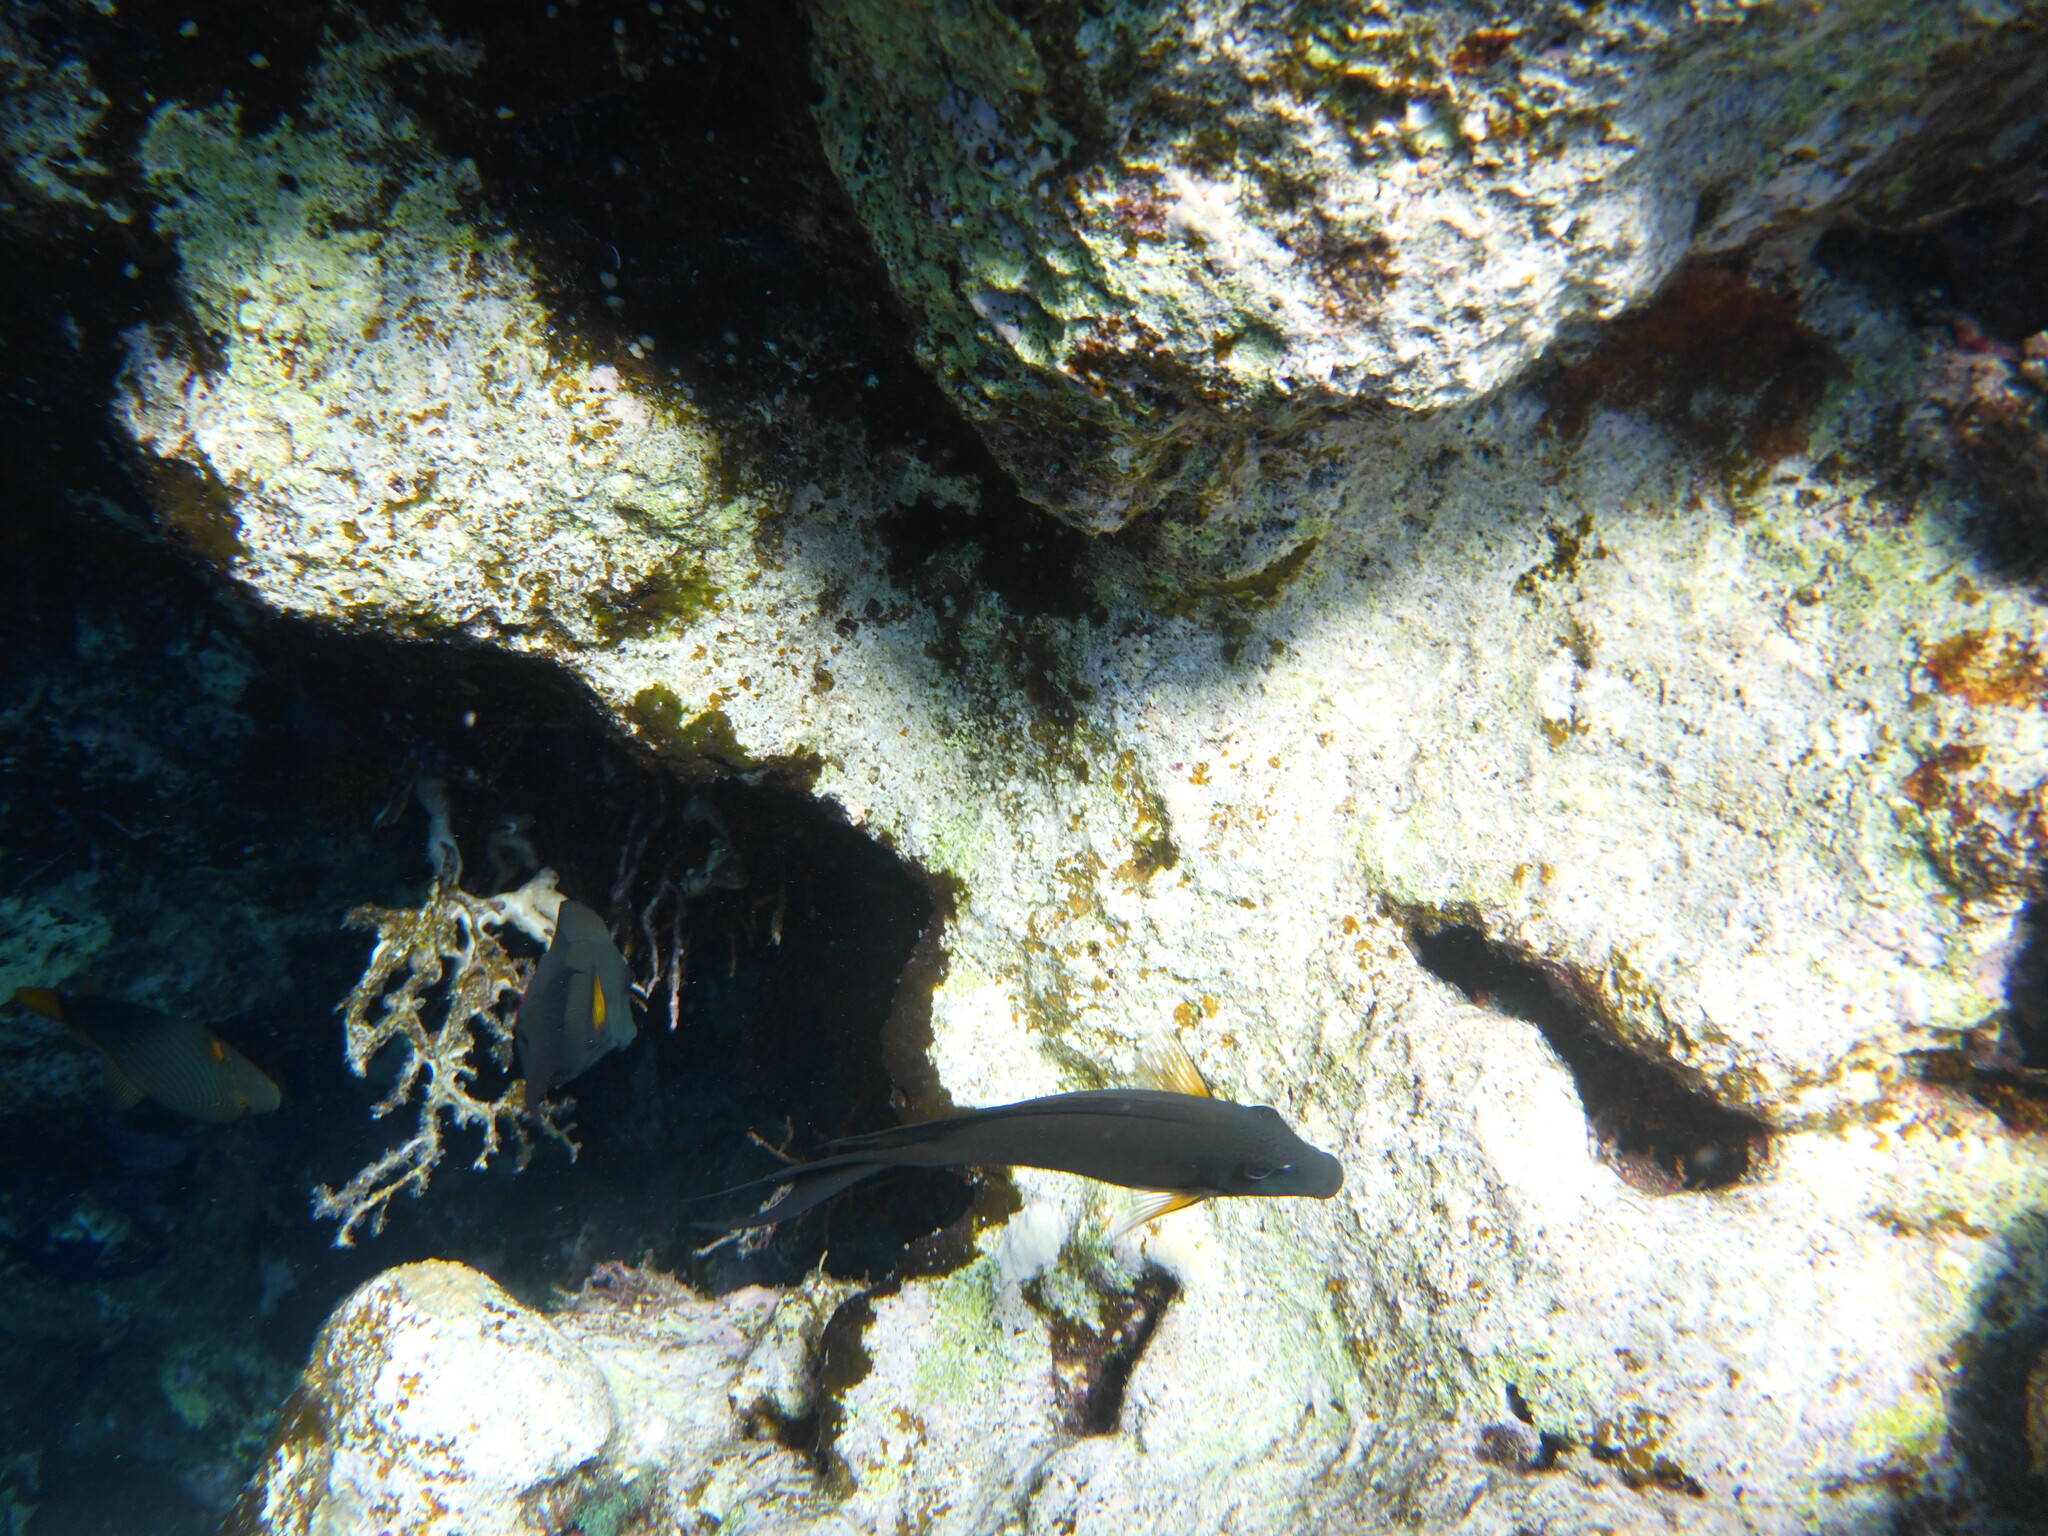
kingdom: Animalia
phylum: Chordata
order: Perciformes
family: Acanthuridae
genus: Ctenochaetus
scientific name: Ctenochaetus striatus
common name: Bristle-toothed surgeonfish
